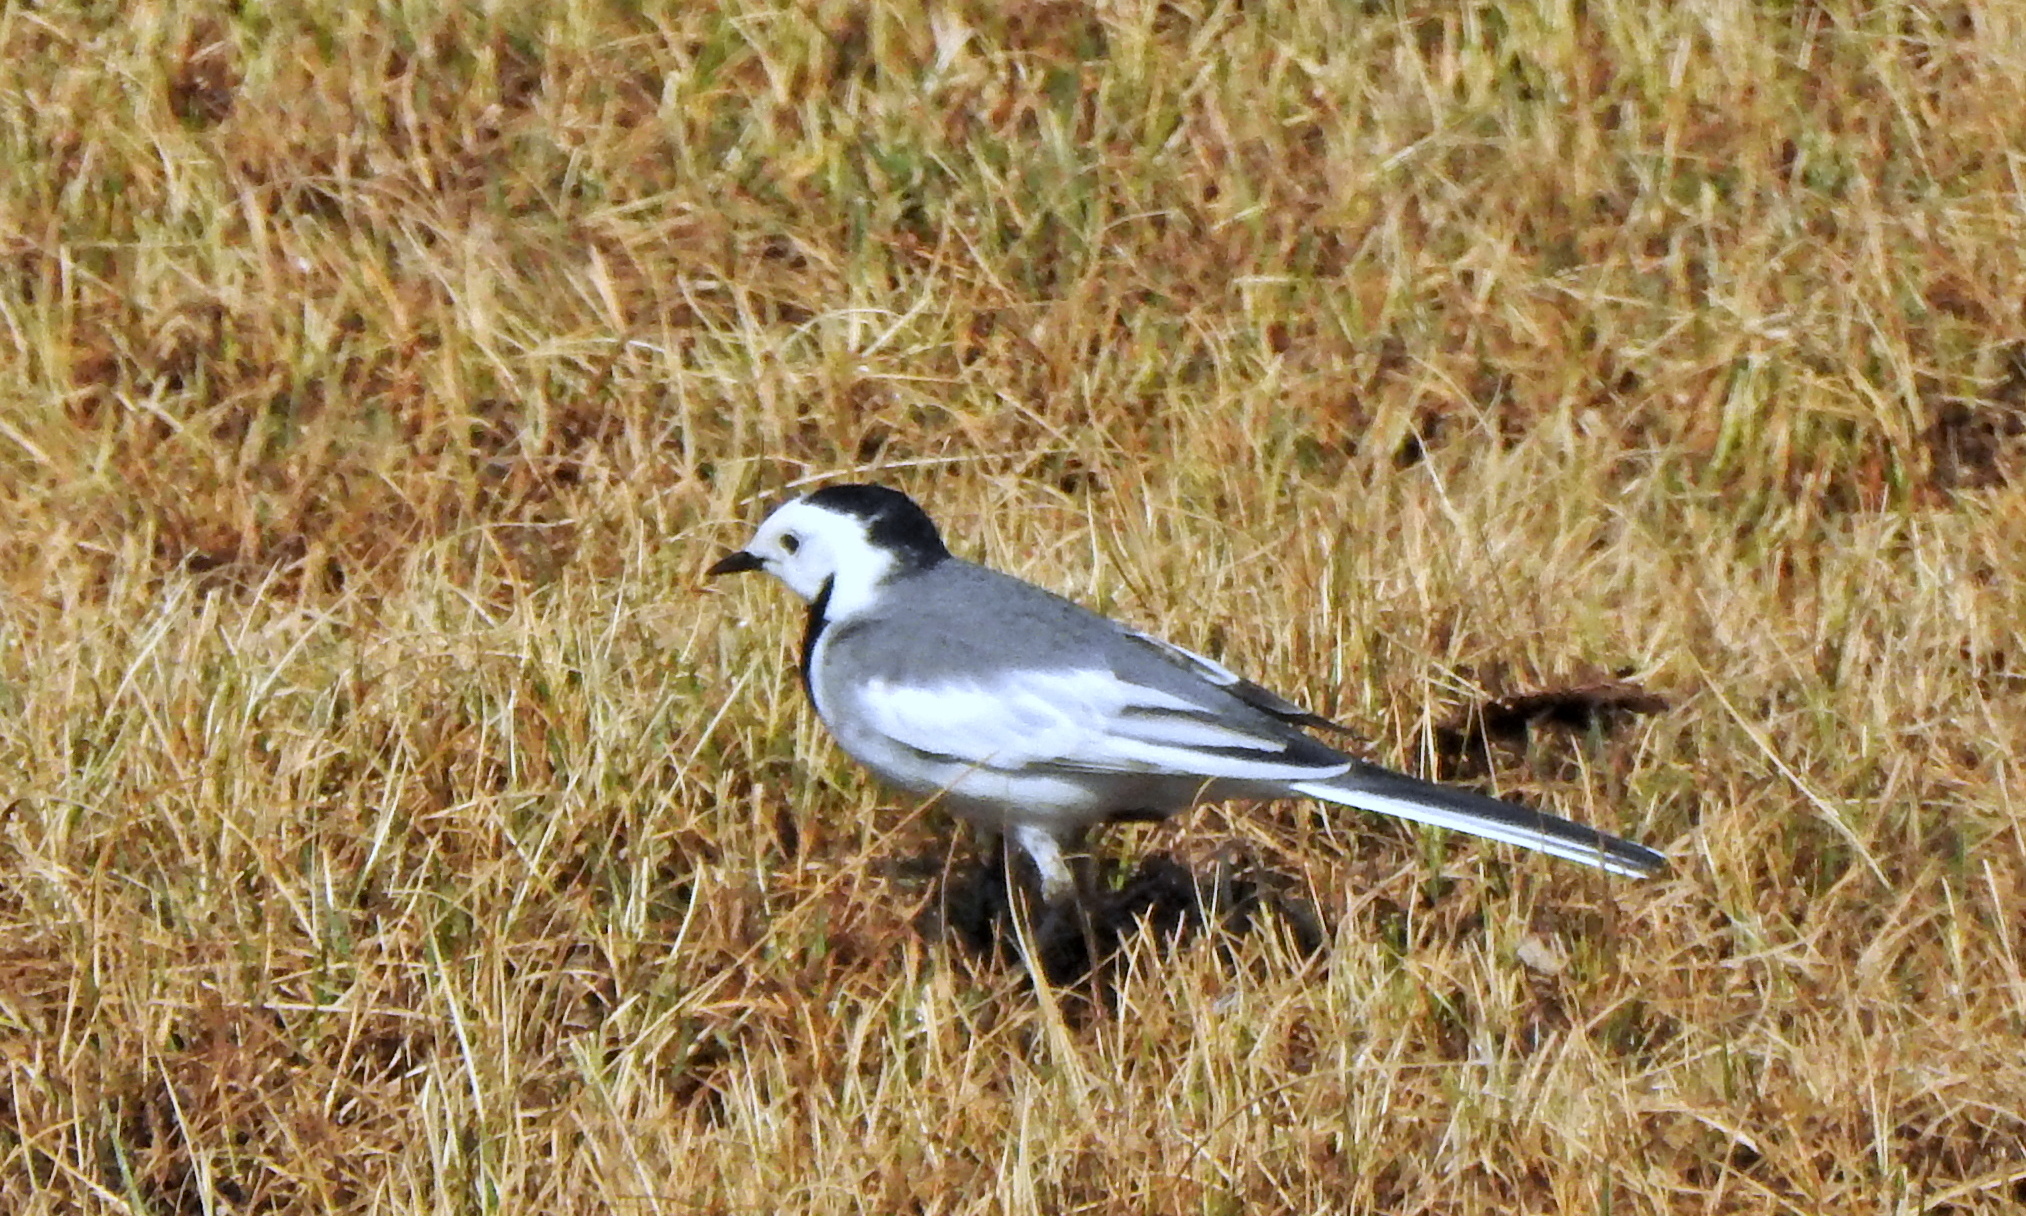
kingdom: Animalia
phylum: Chordata
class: Aves
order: Passeriformes
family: Motacillidae
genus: Motacilla
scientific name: Motacilla alba
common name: White wagtail
